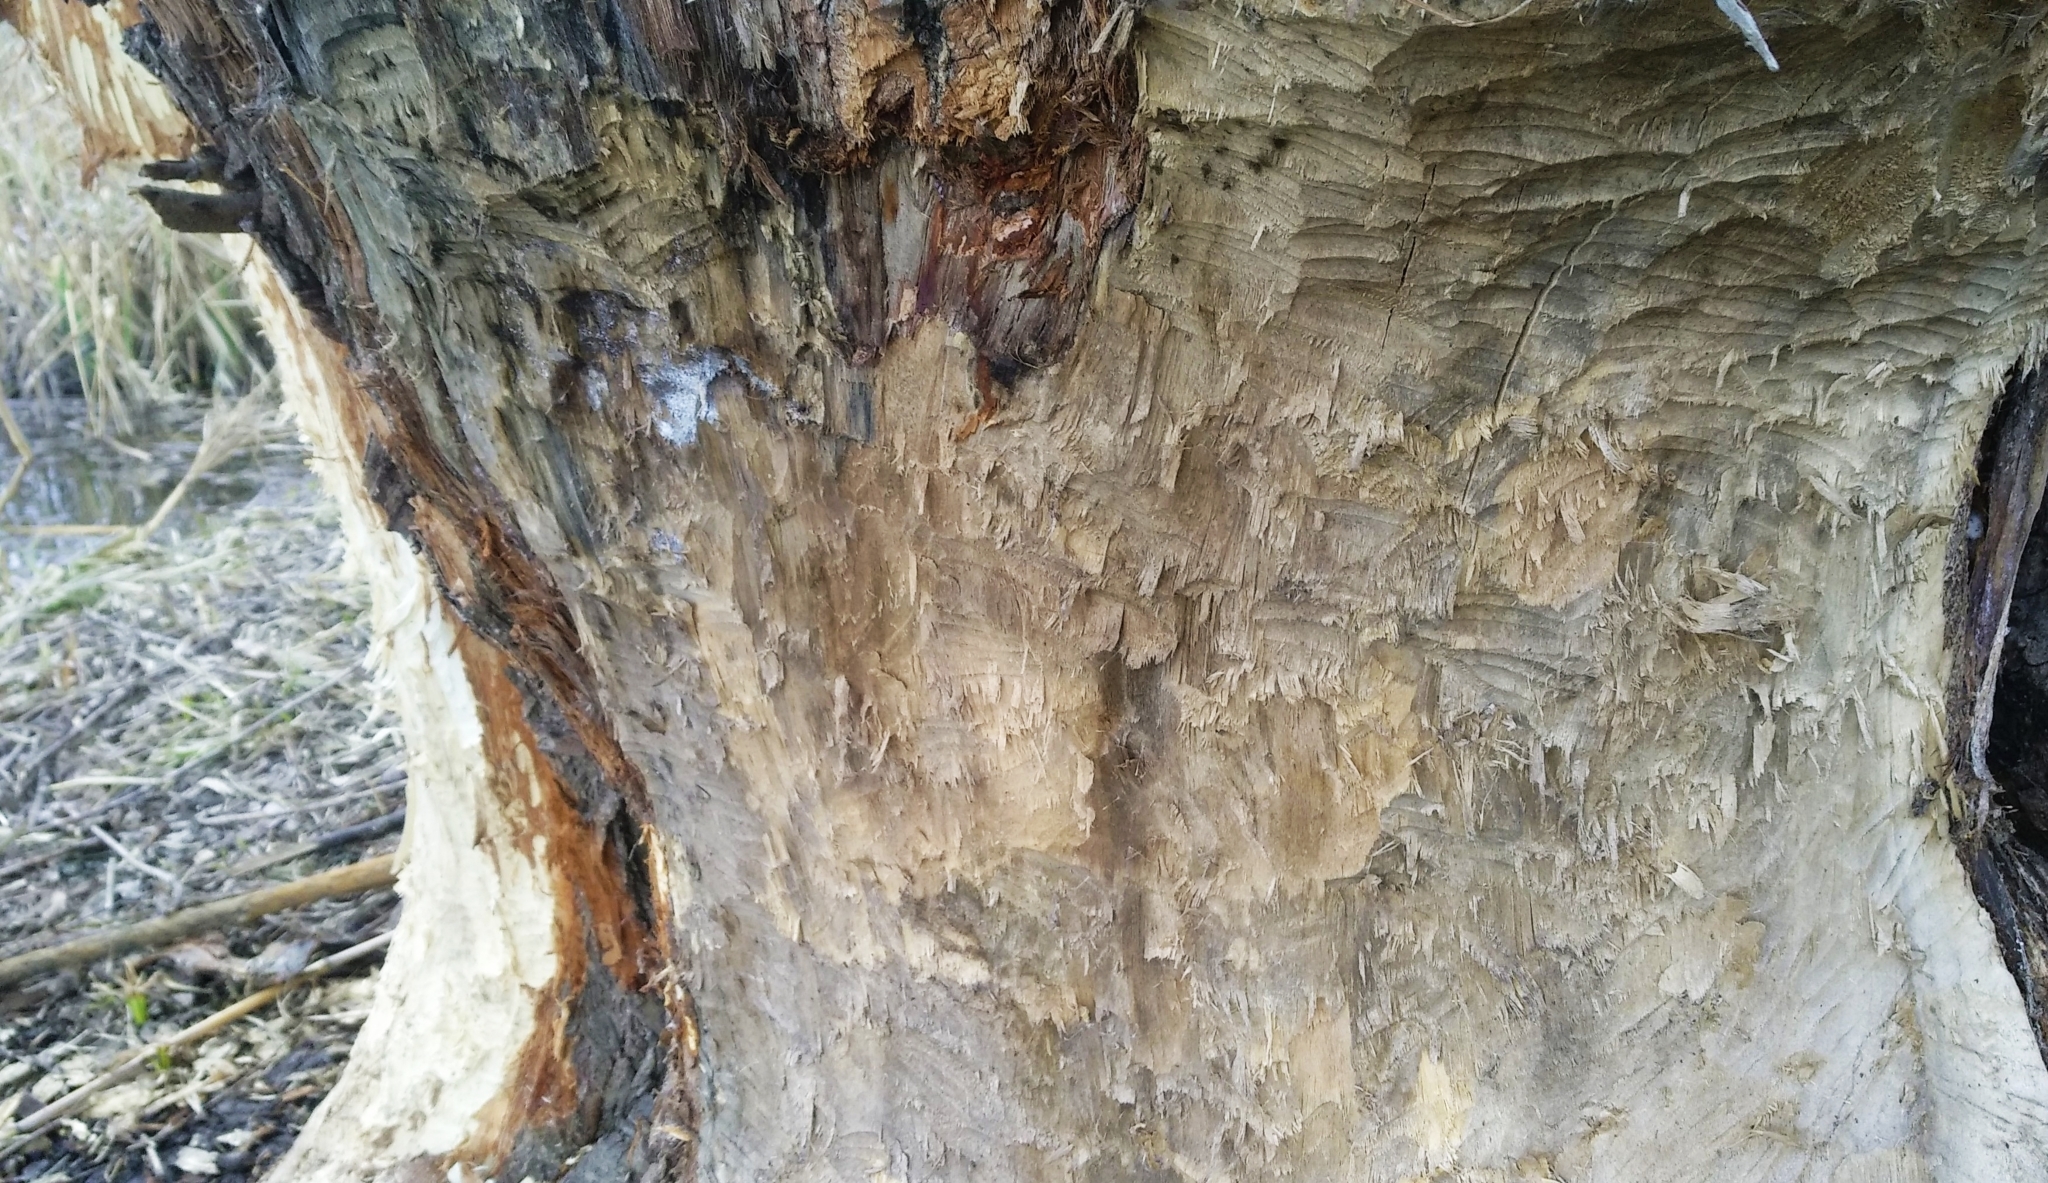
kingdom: Animalia
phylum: Chordata
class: Mammalia
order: Rodentia
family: Castoridae
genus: Castor
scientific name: Castor fiber
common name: Eurasian beaver
